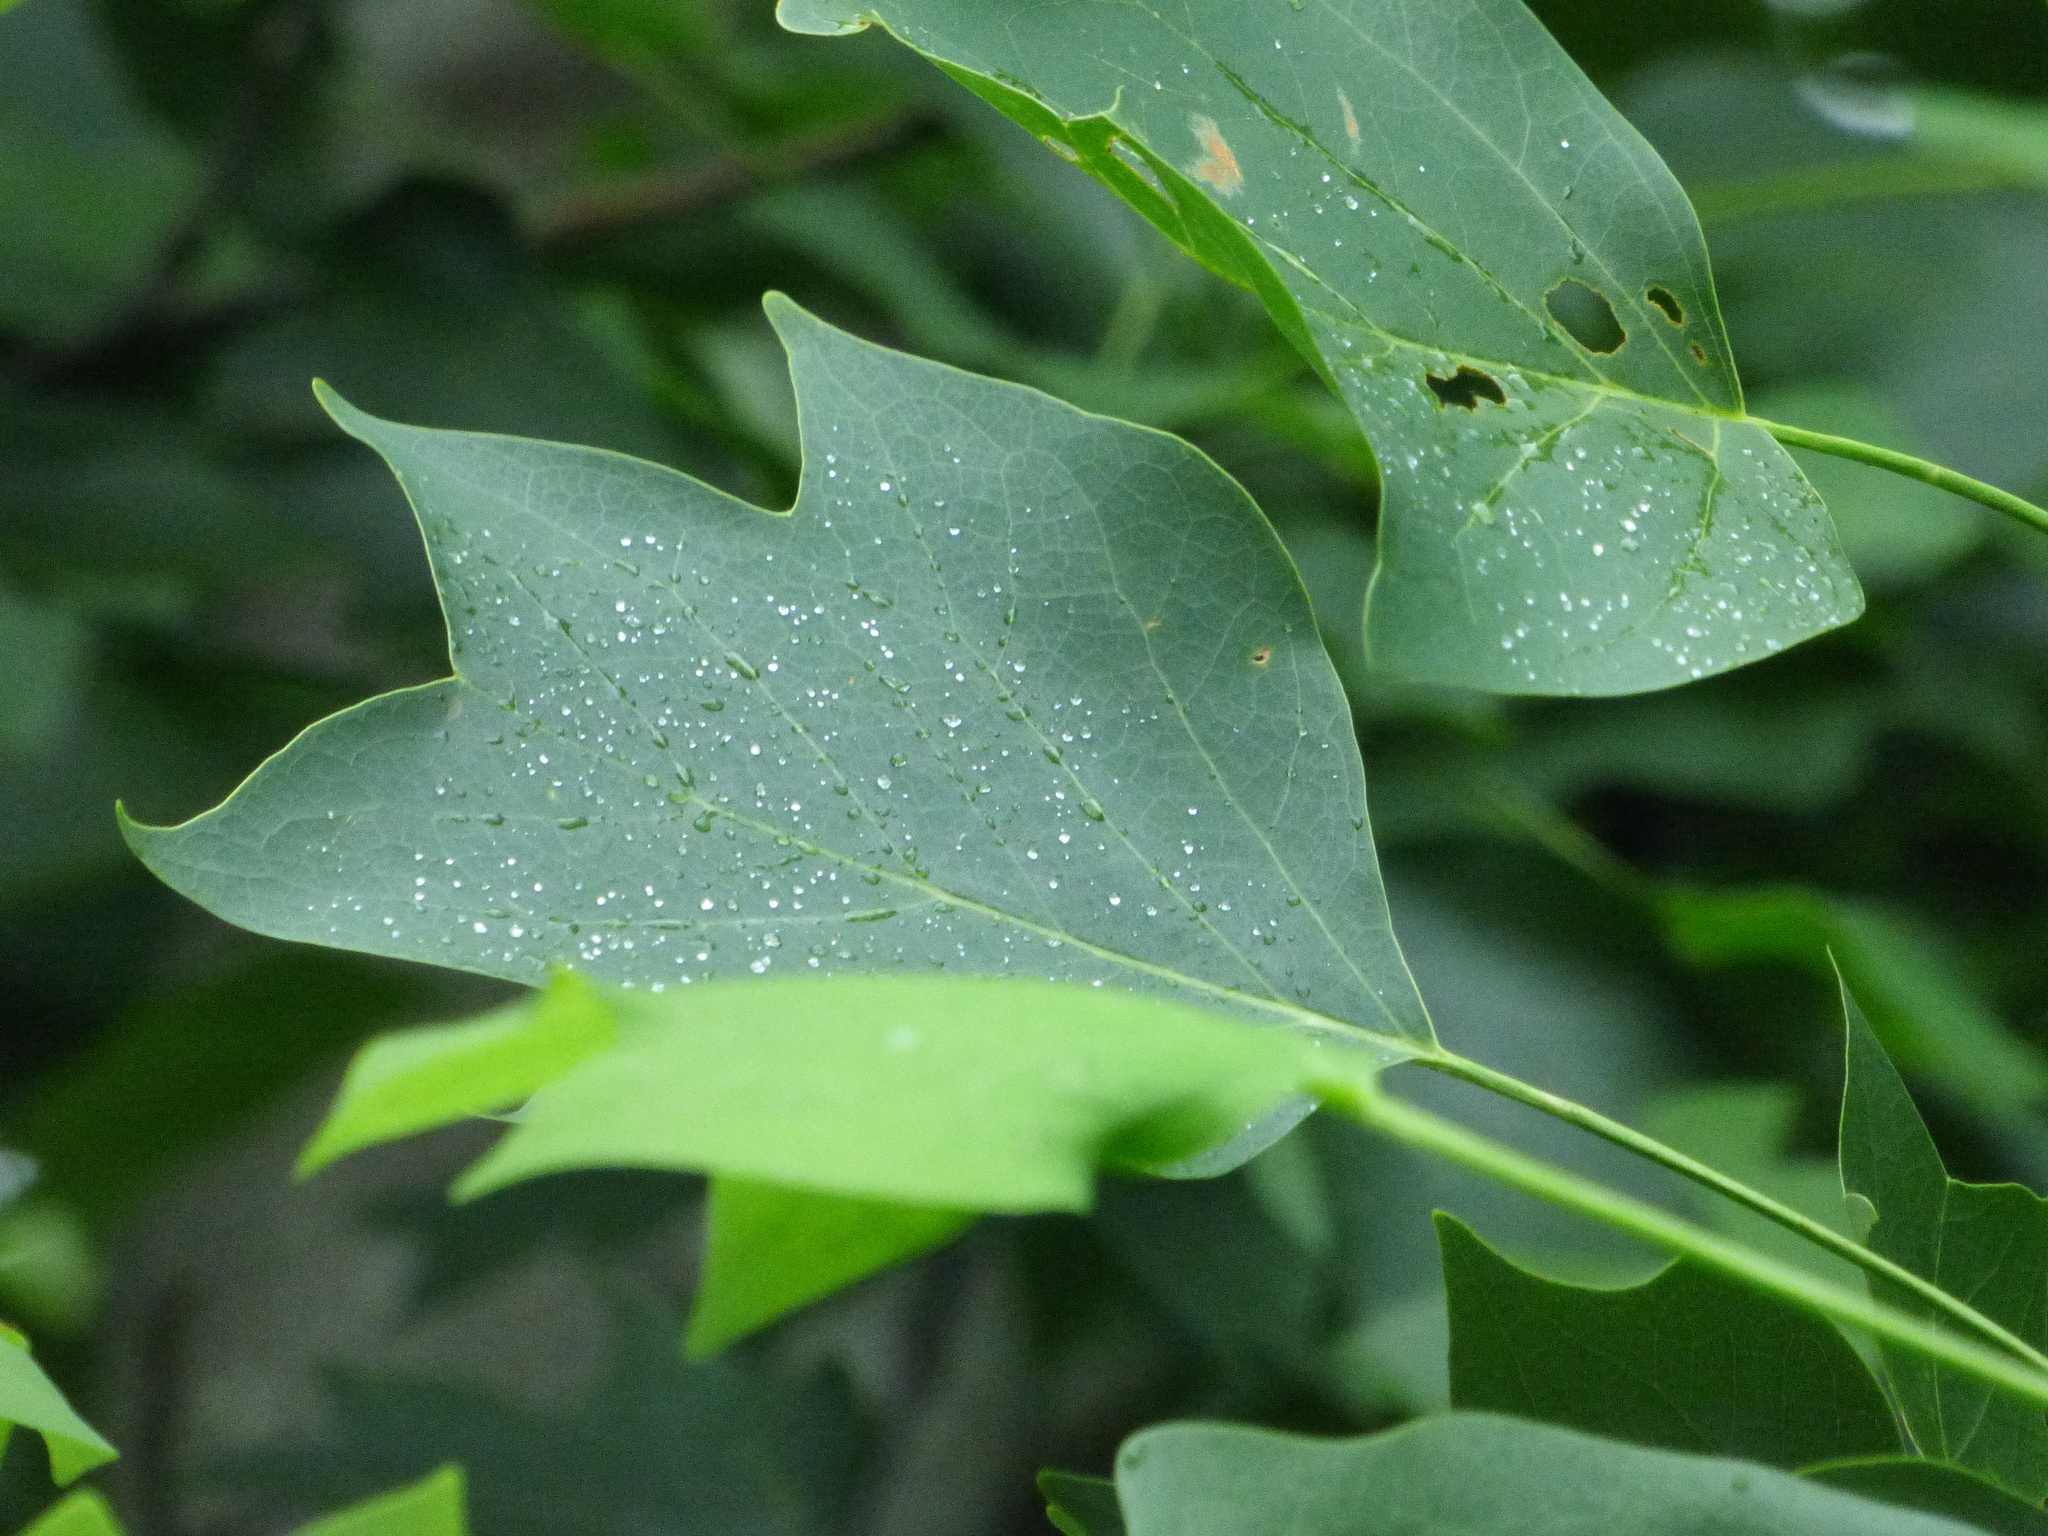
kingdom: Plantae
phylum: Tracheophyta
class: Magnoliopsida
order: Magnoliales
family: Magnoliaceae
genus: Liriodendron
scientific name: Liriodendron tulipifera
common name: Tulip tree
